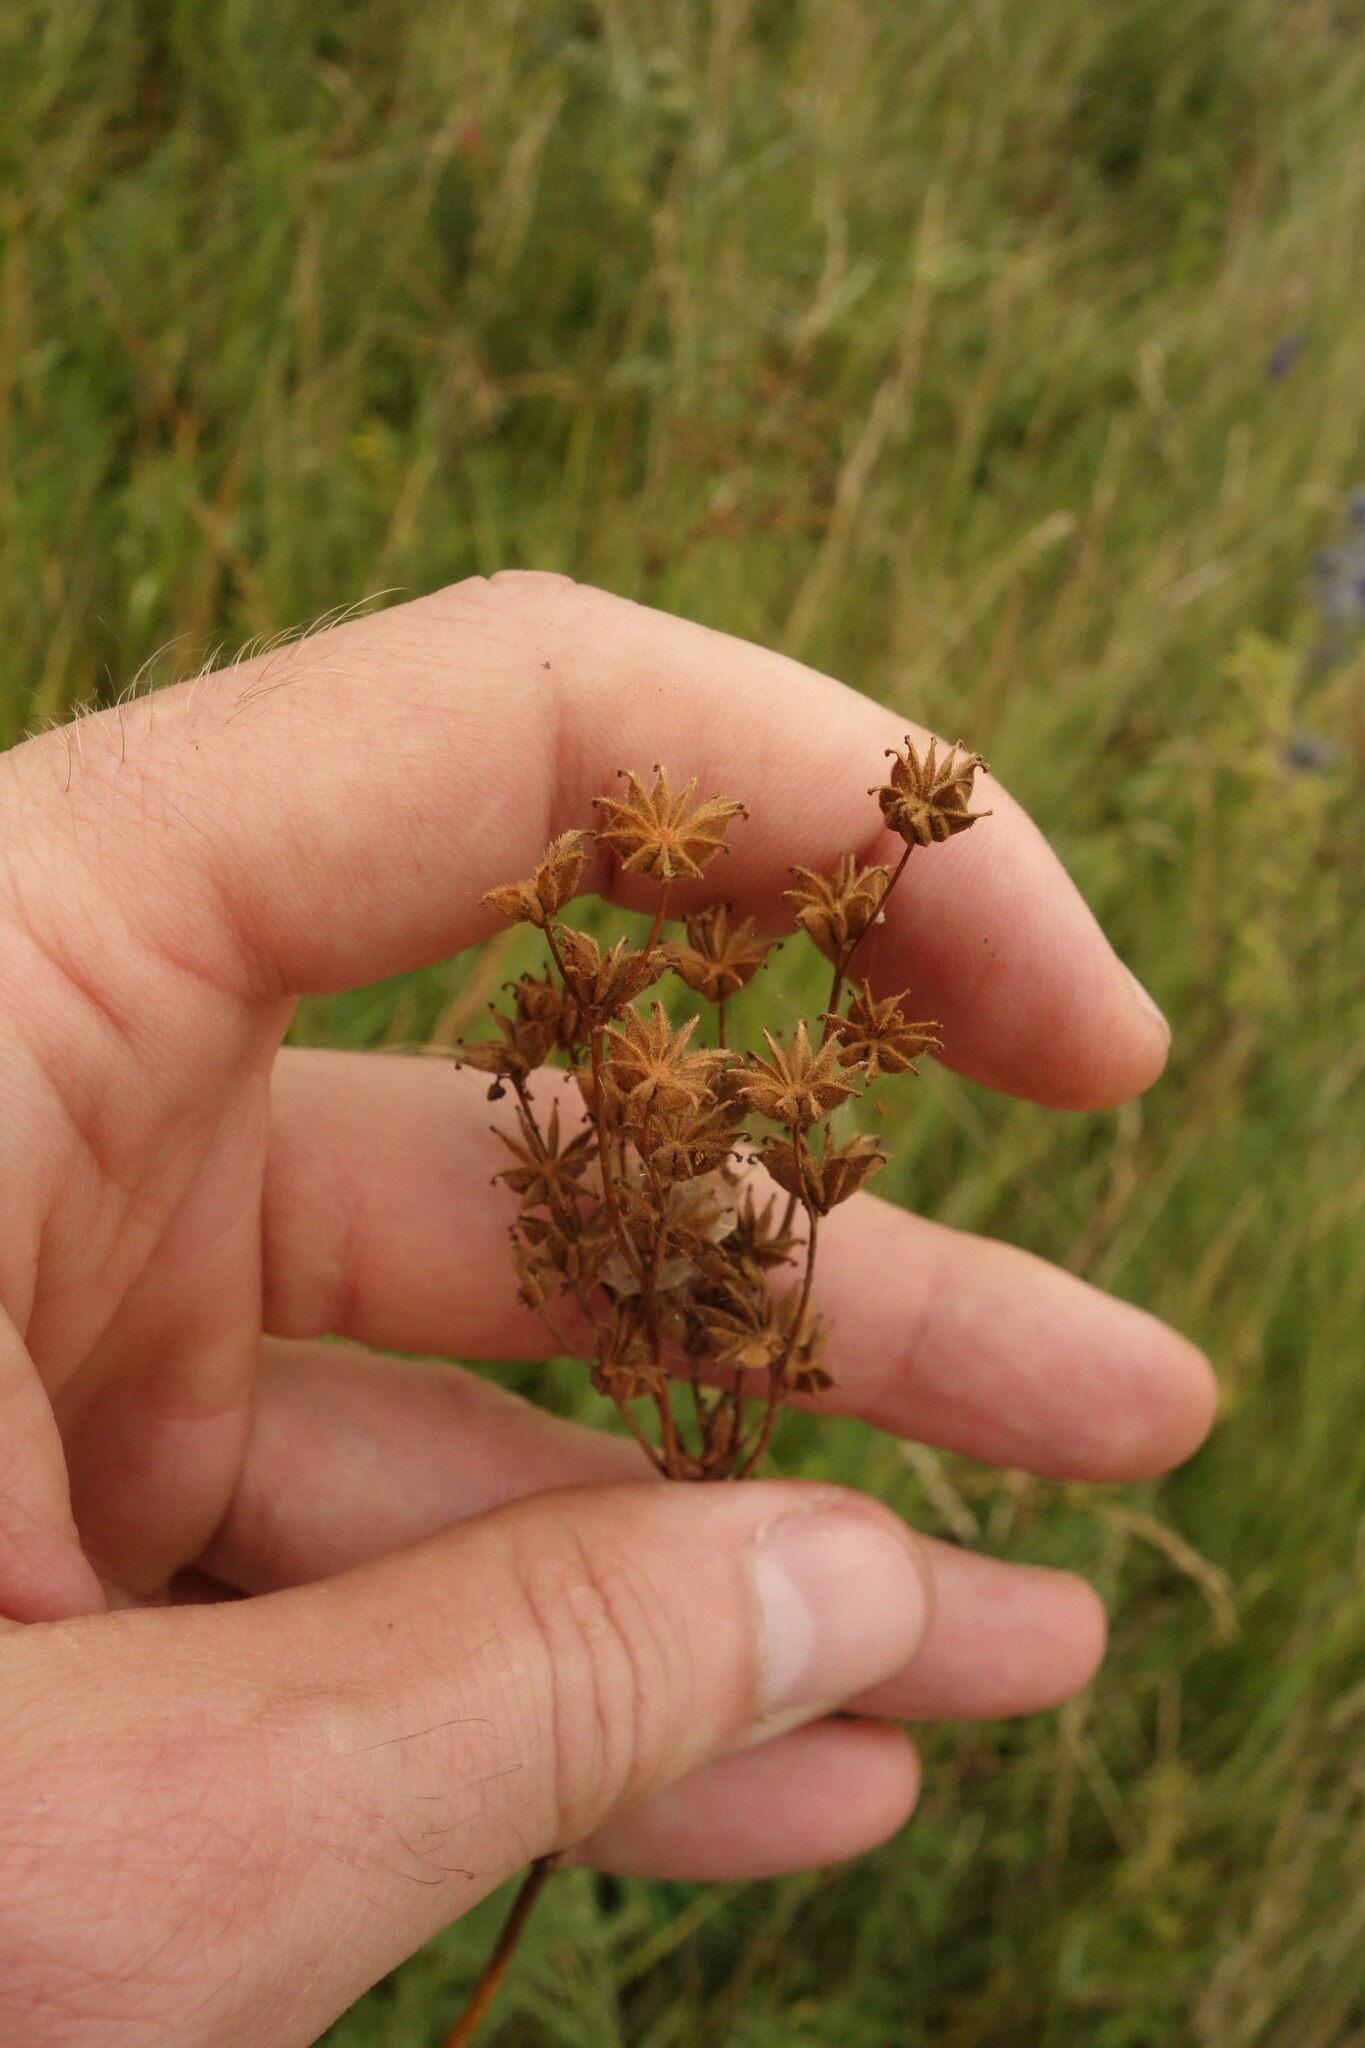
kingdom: Plantae
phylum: Tracheophyta
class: Magnoliopsida
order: Rosales
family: Rosaceae
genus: Filipendula
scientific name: Filipendula vulgaris
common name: Dropwort
